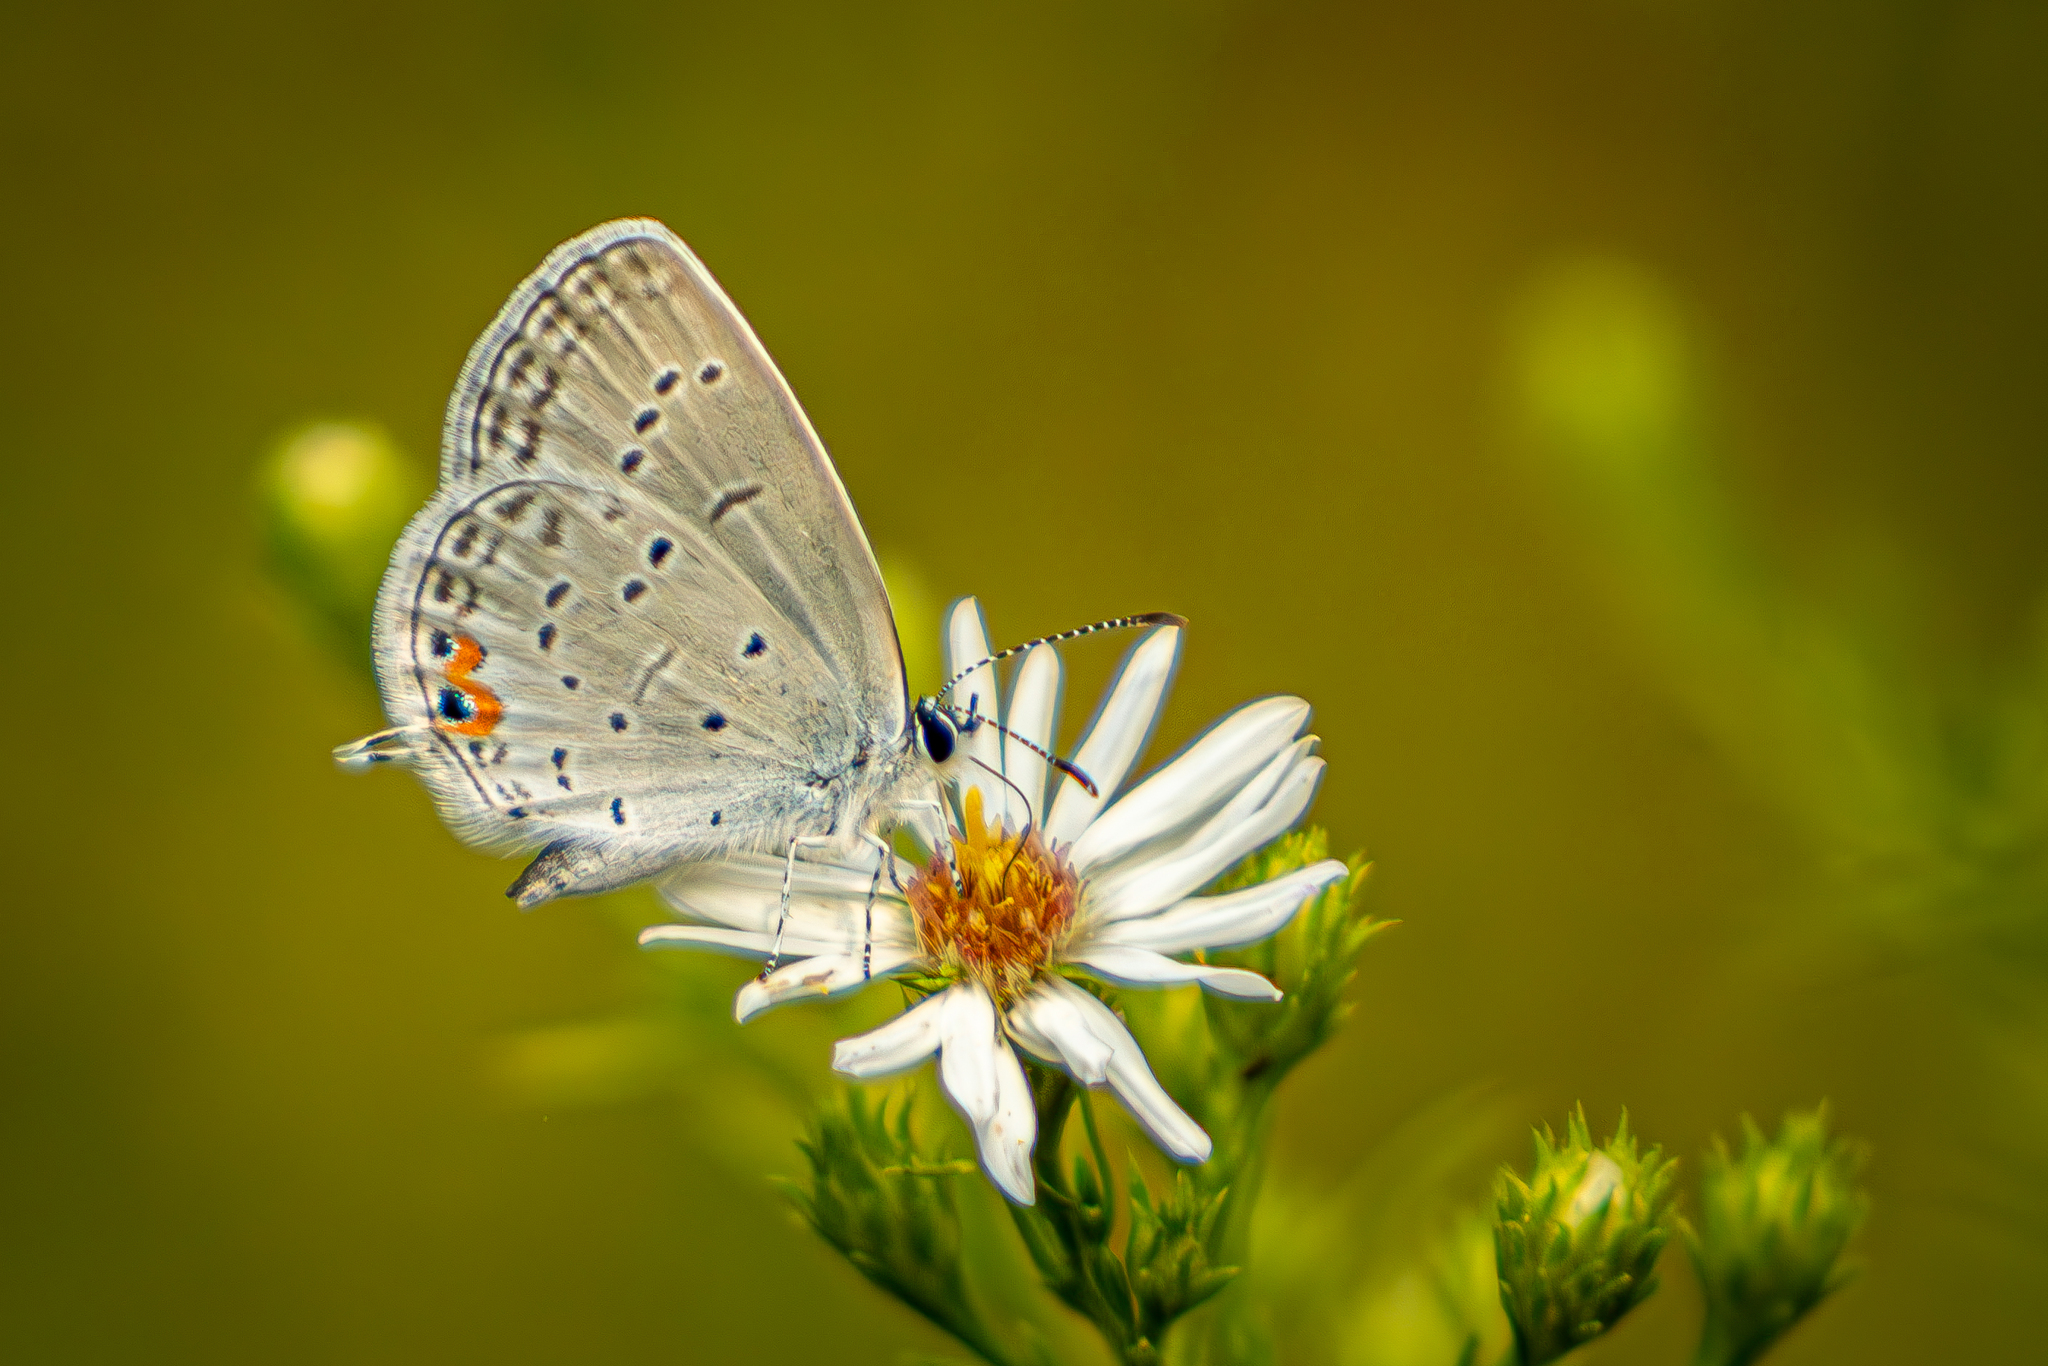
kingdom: Animalia
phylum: Arthropoda
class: Insecta
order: Lepidoptera
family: Lycaenidae
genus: Elkalyce
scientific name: Elkalyce comyntas
